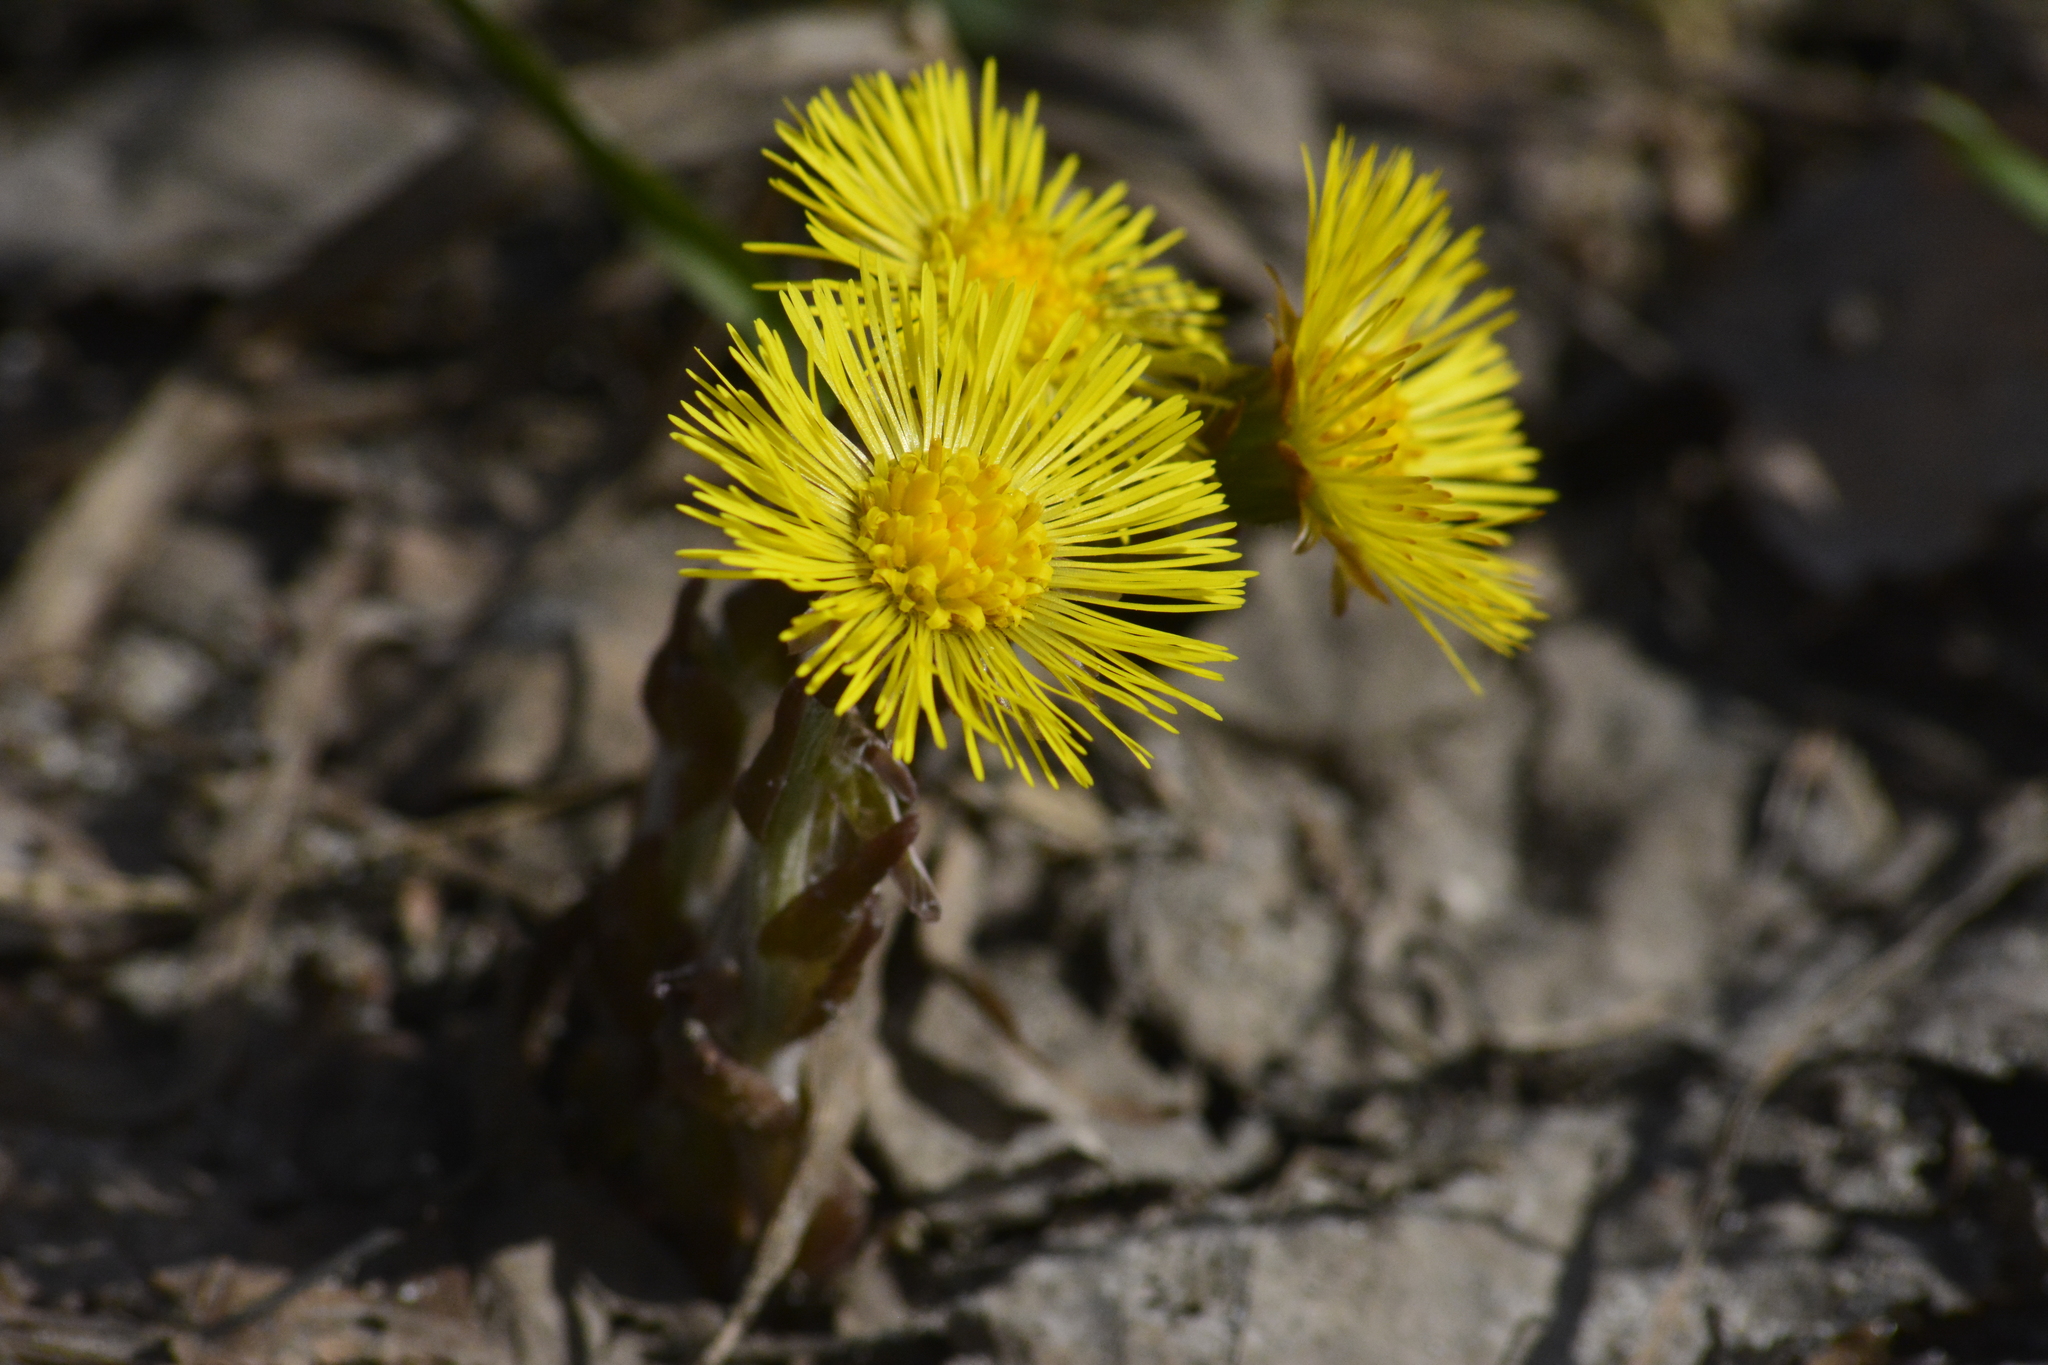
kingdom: Plantae
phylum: Tracheophyta
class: Magnoliopsida
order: Asterales
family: Asteraceae
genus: Tussilago
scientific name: Tussilago farfara
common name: Coltsfoot
